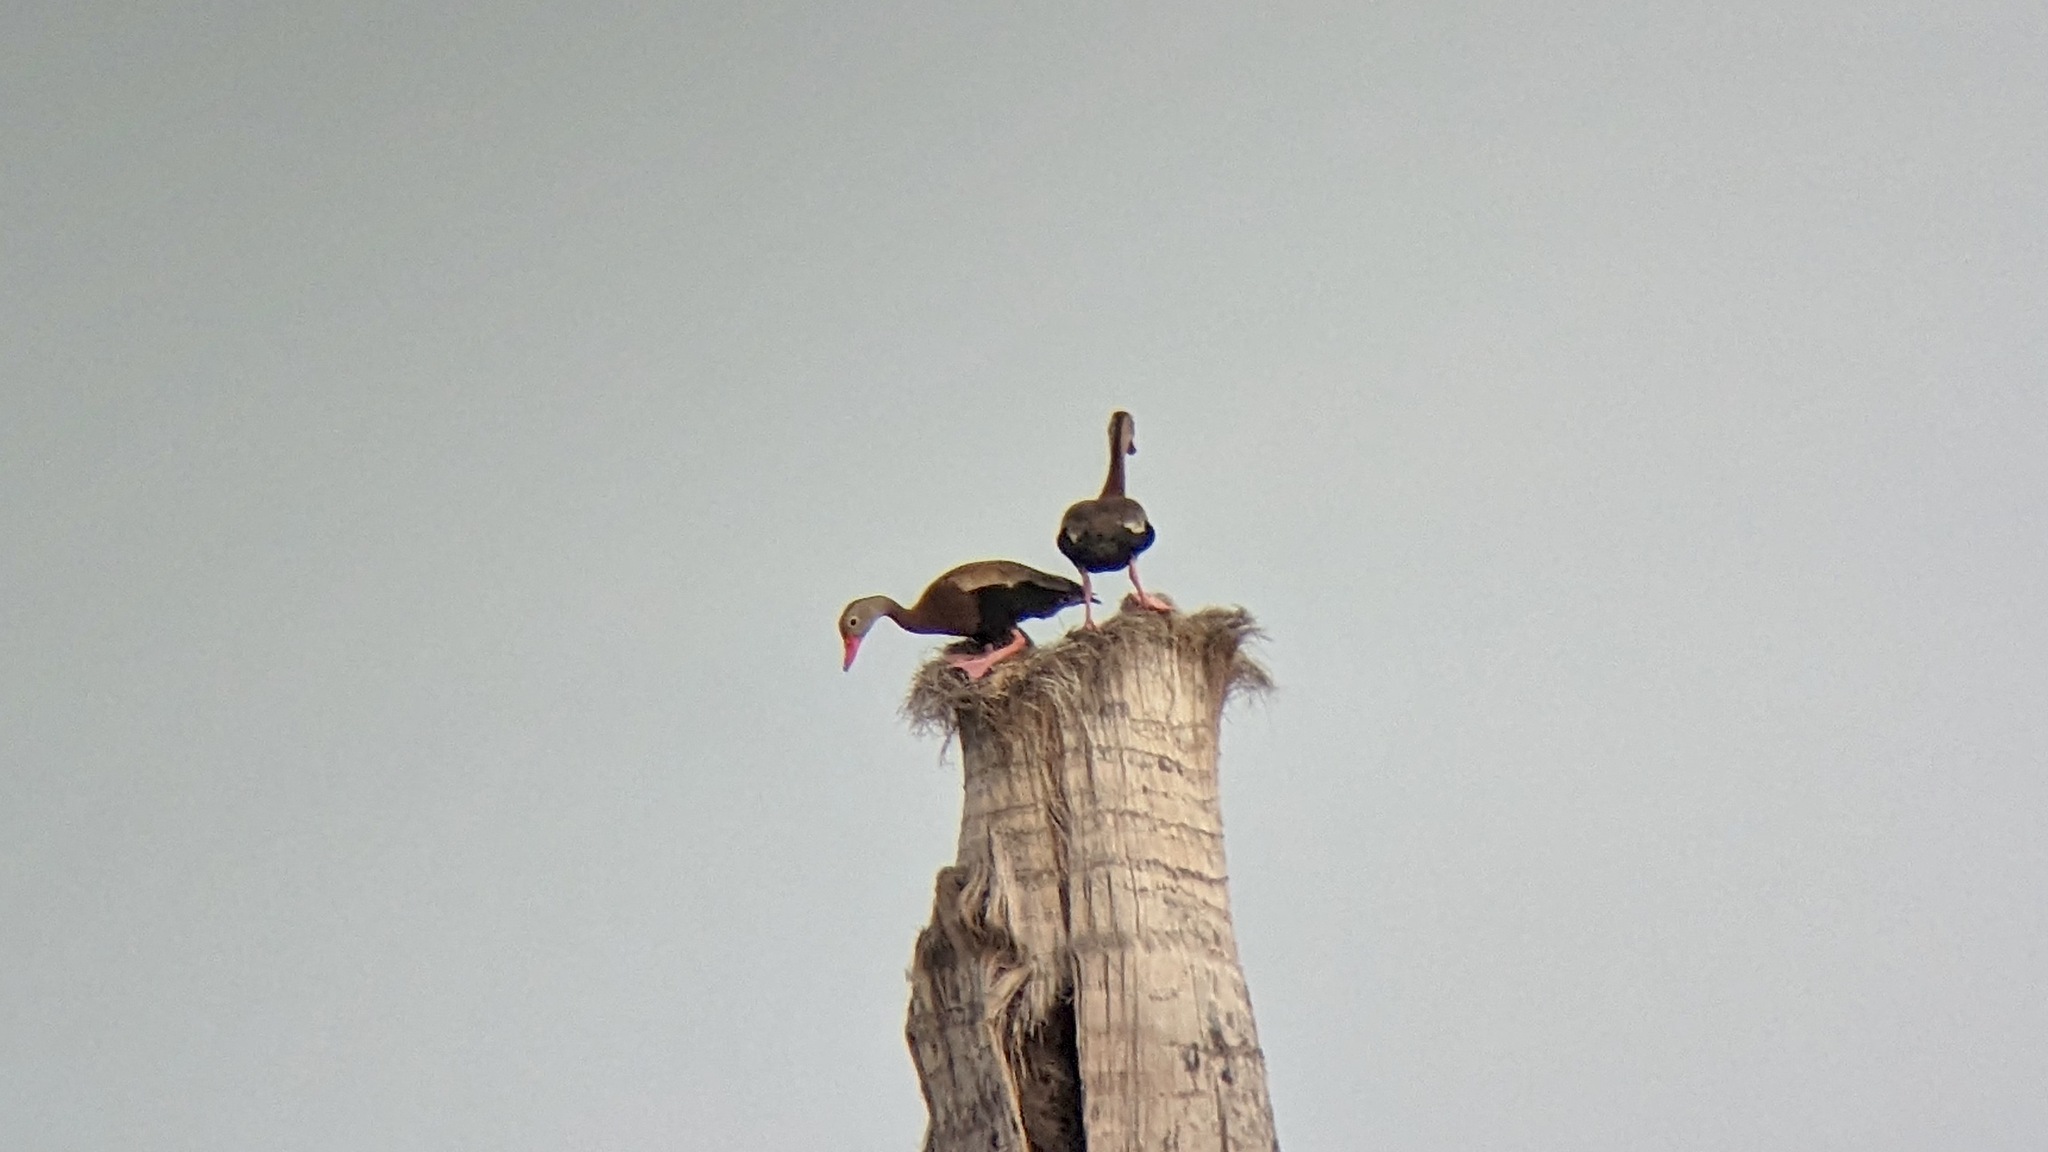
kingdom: Animalia
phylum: Chordata
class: Aves
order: Anseriformes
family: Anatidae
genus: Dendrocygna
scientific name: Dendrocygna autumnalis
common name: Black-bellied whistling duck
